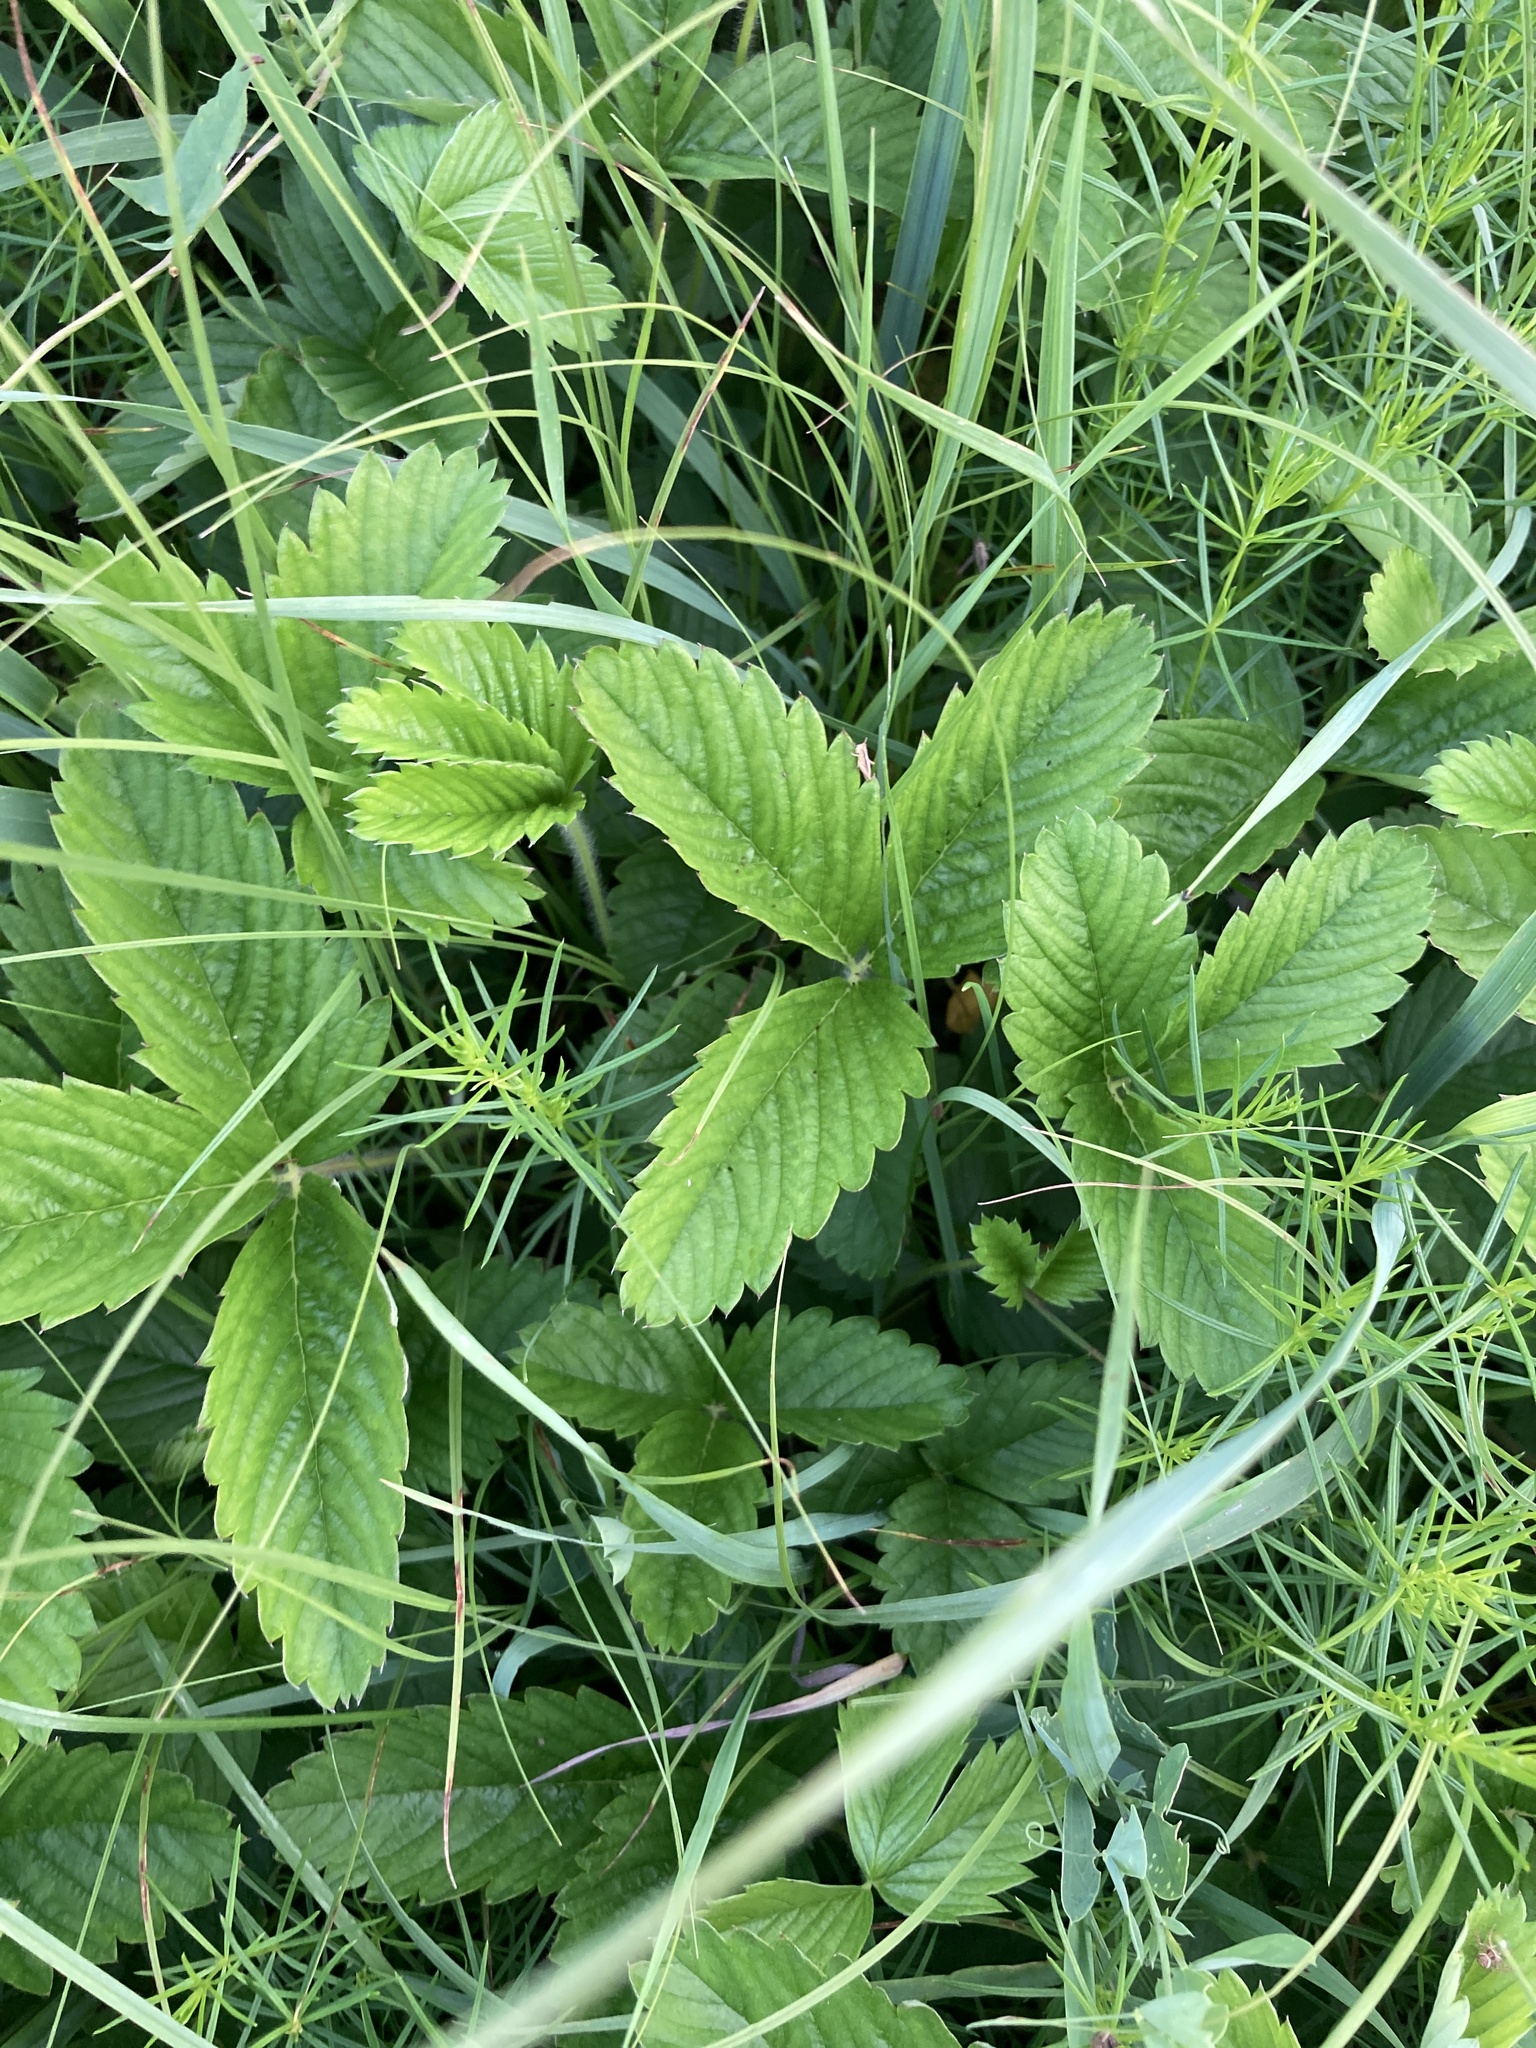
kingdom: Plantae
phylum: Tracheophyta
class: Magnoliopsida
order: Rosales
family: Rosaceae
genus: Fragaria
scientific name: Fragaria viridis
